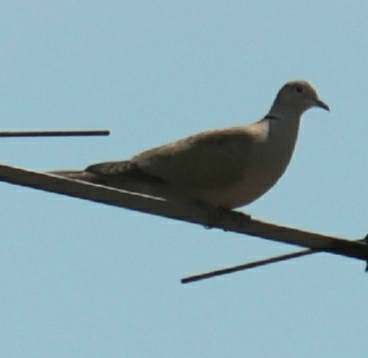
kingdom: Animalia
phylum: Chordata
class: Aves
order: Columbiformes
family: Columbidae
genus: Streptopelia
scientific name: Streptopelia decaocto
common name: Eurasian collared dove
